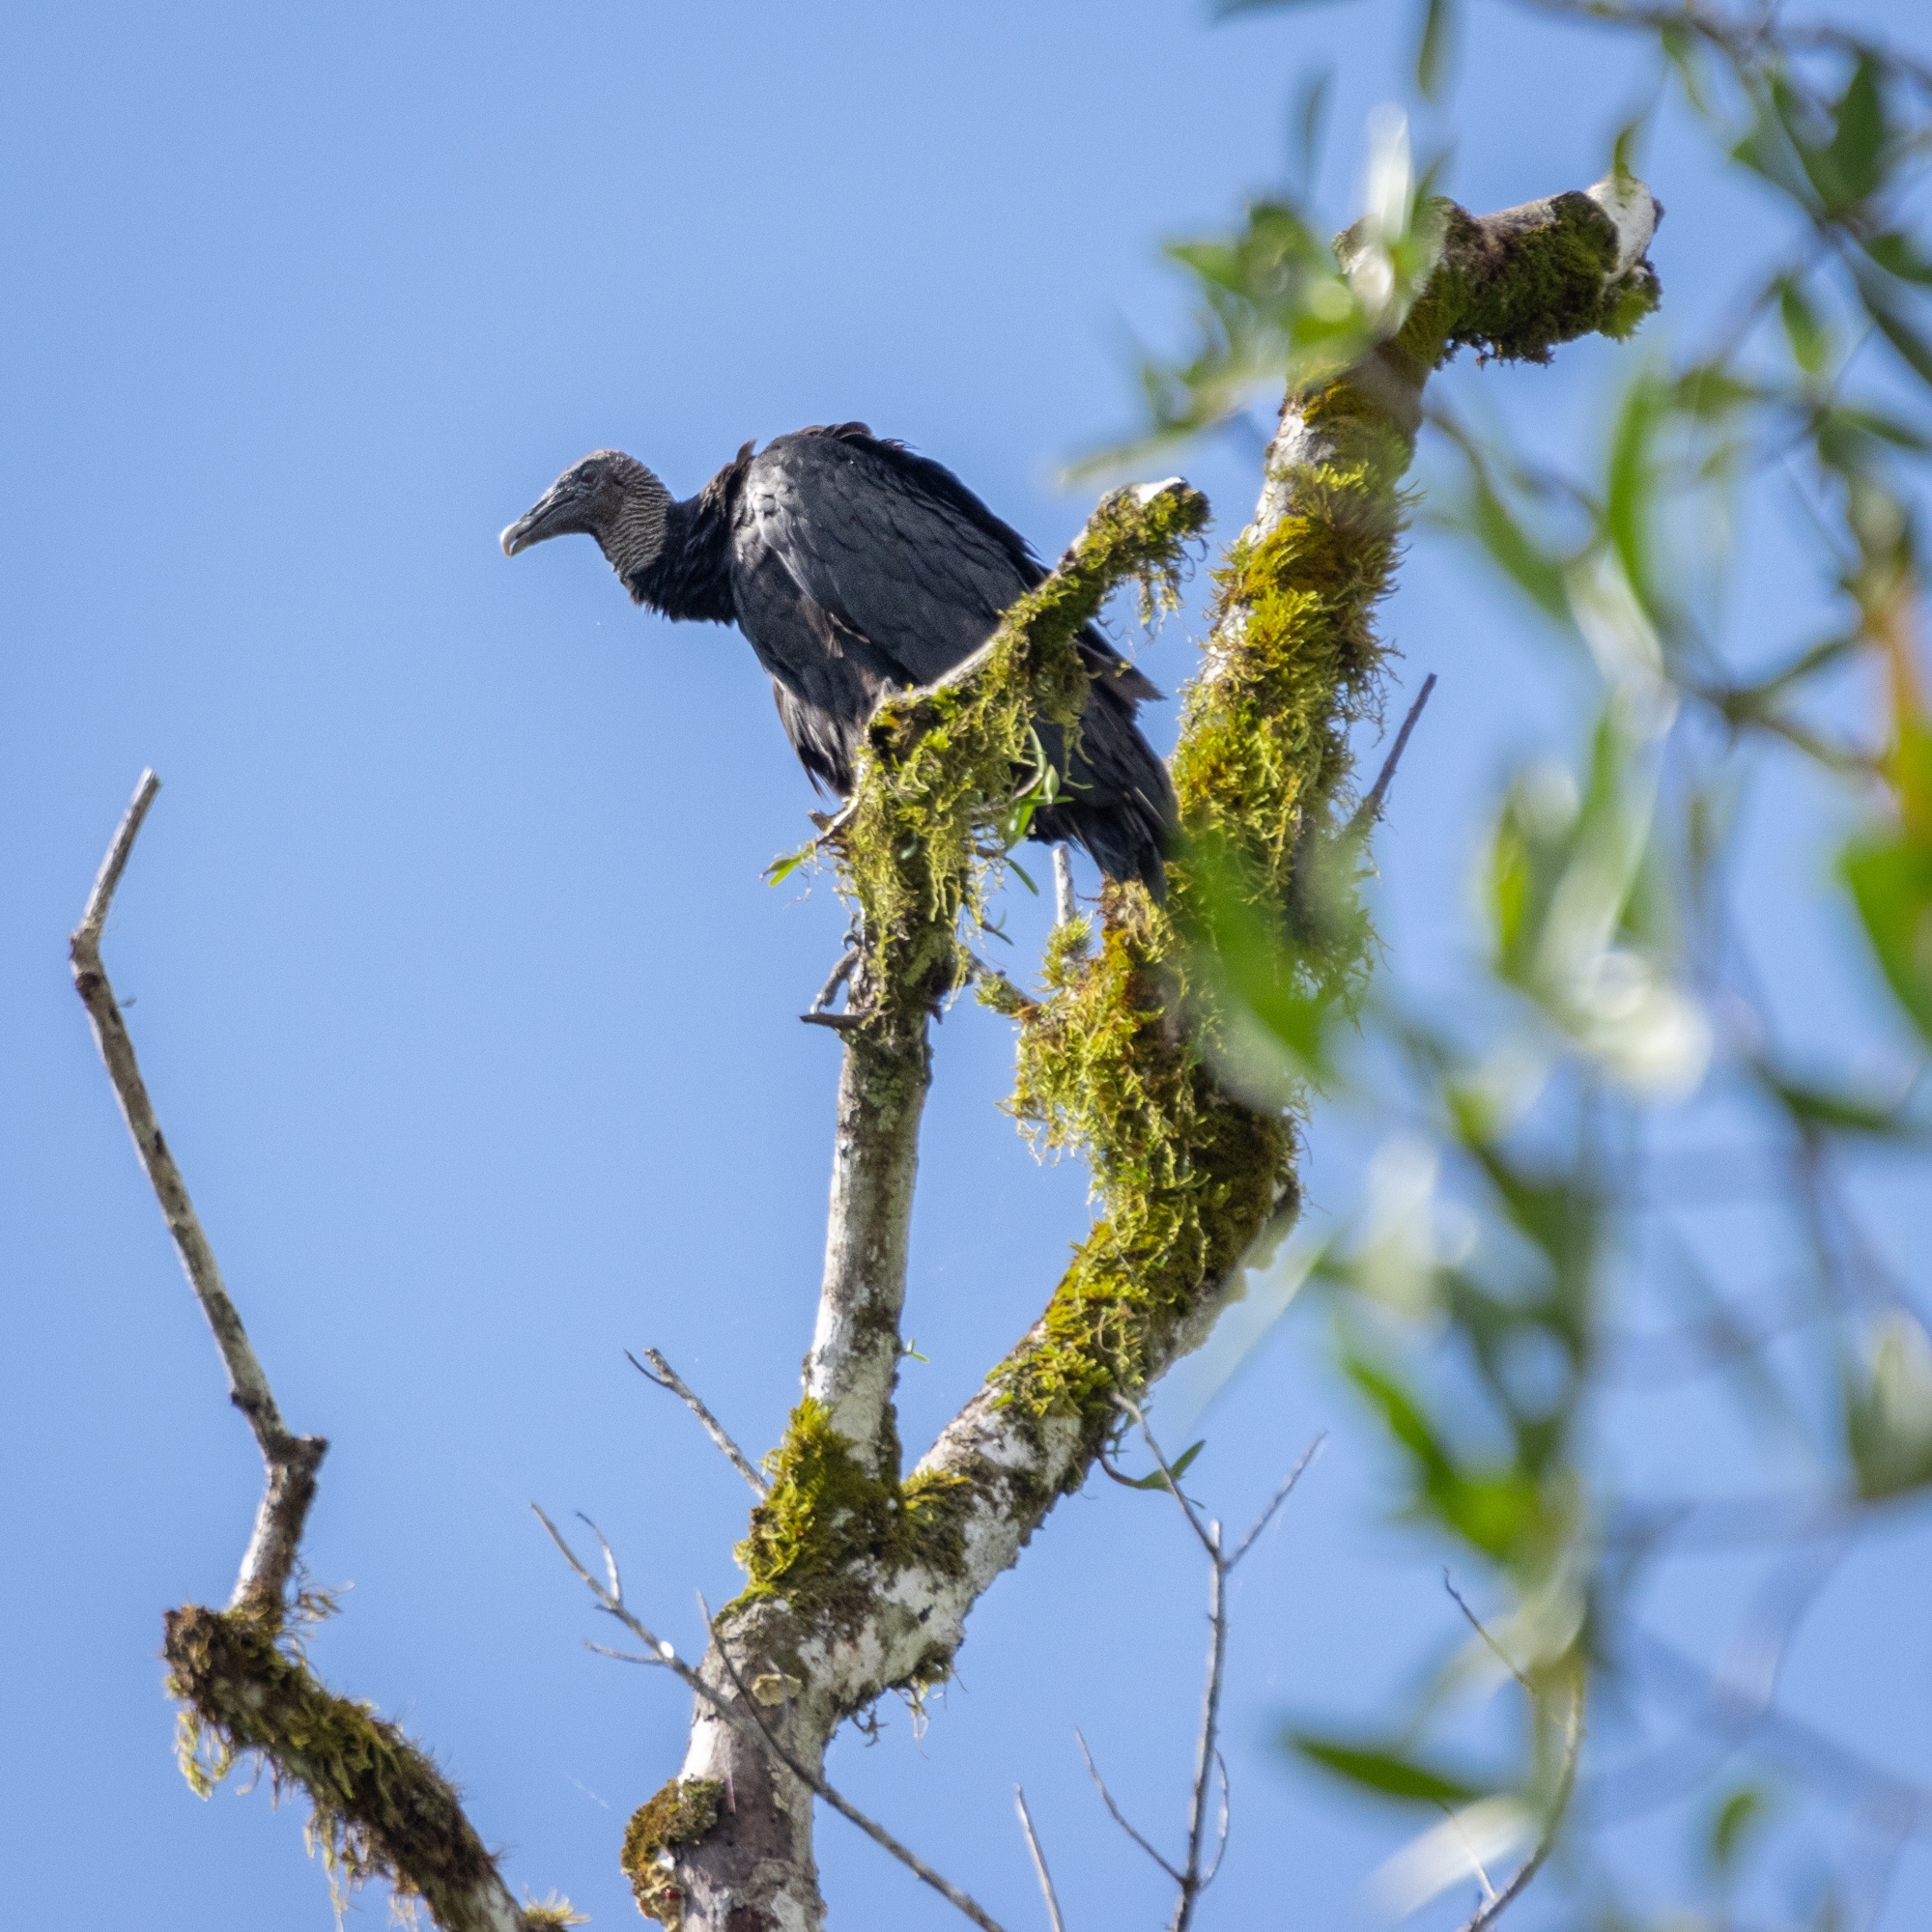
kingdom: Animalia
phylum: Chordata
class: Aves
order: Accipitriformes
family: Cathartidae
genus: Coragyps
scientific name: Coragyps atratus
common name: Black vulture
